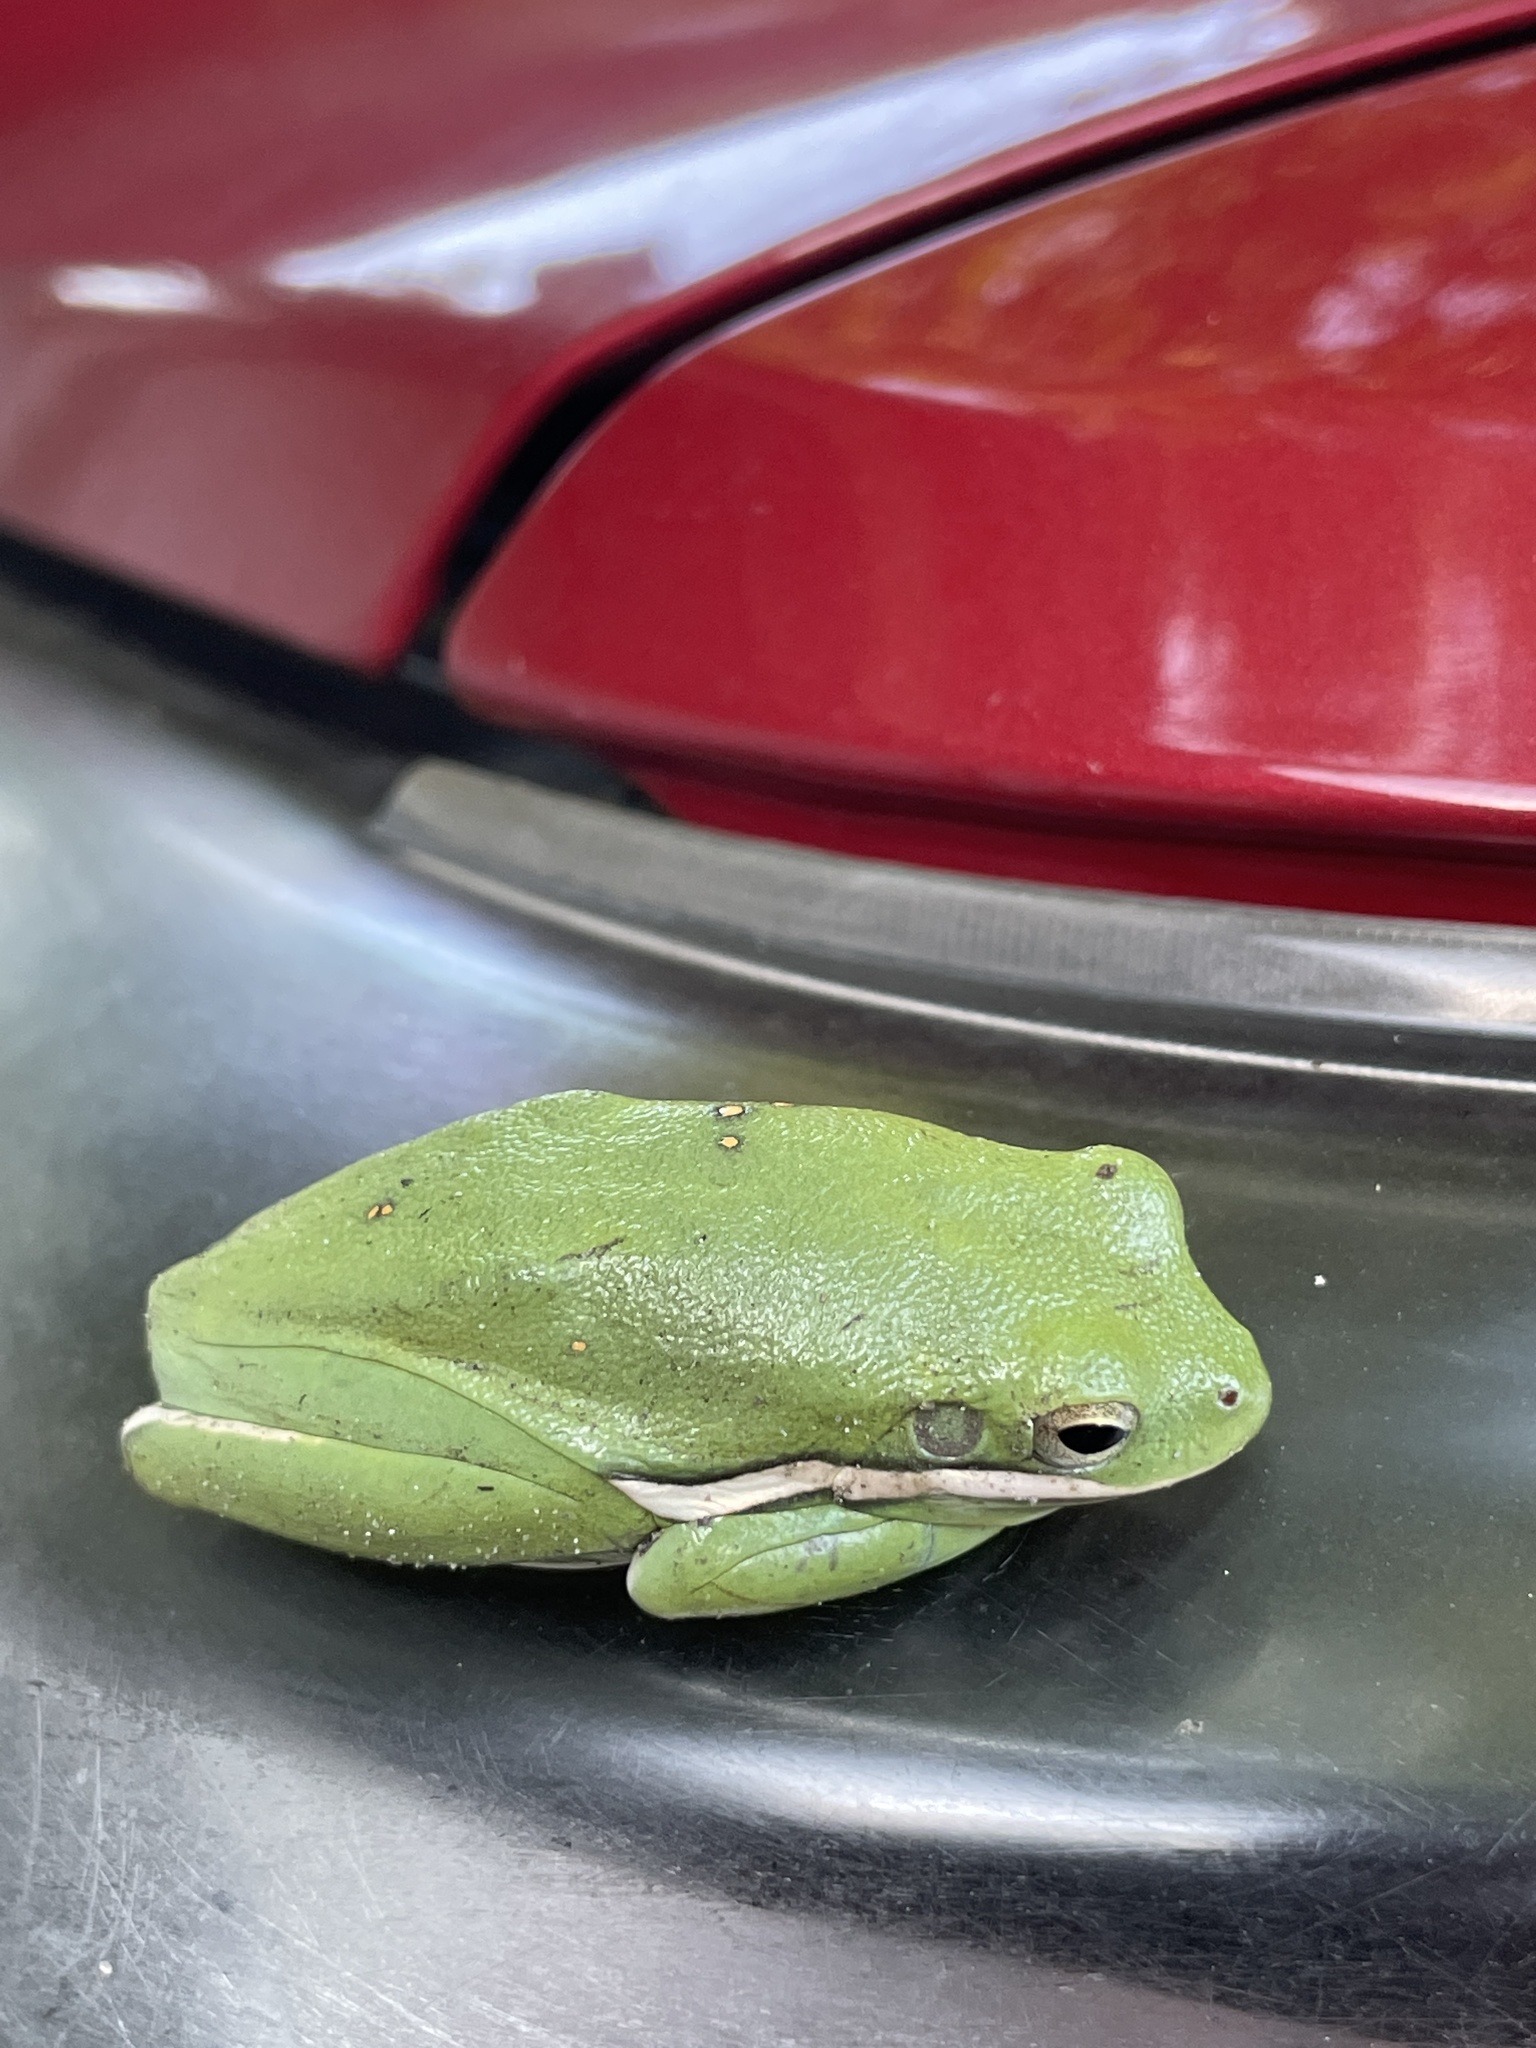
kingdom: Animalia
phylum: Chordata
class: Amphibia
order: Anura
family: Hylidae
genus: Dryophytes
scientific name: Dryophytes cinereus
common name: Green treefrog
